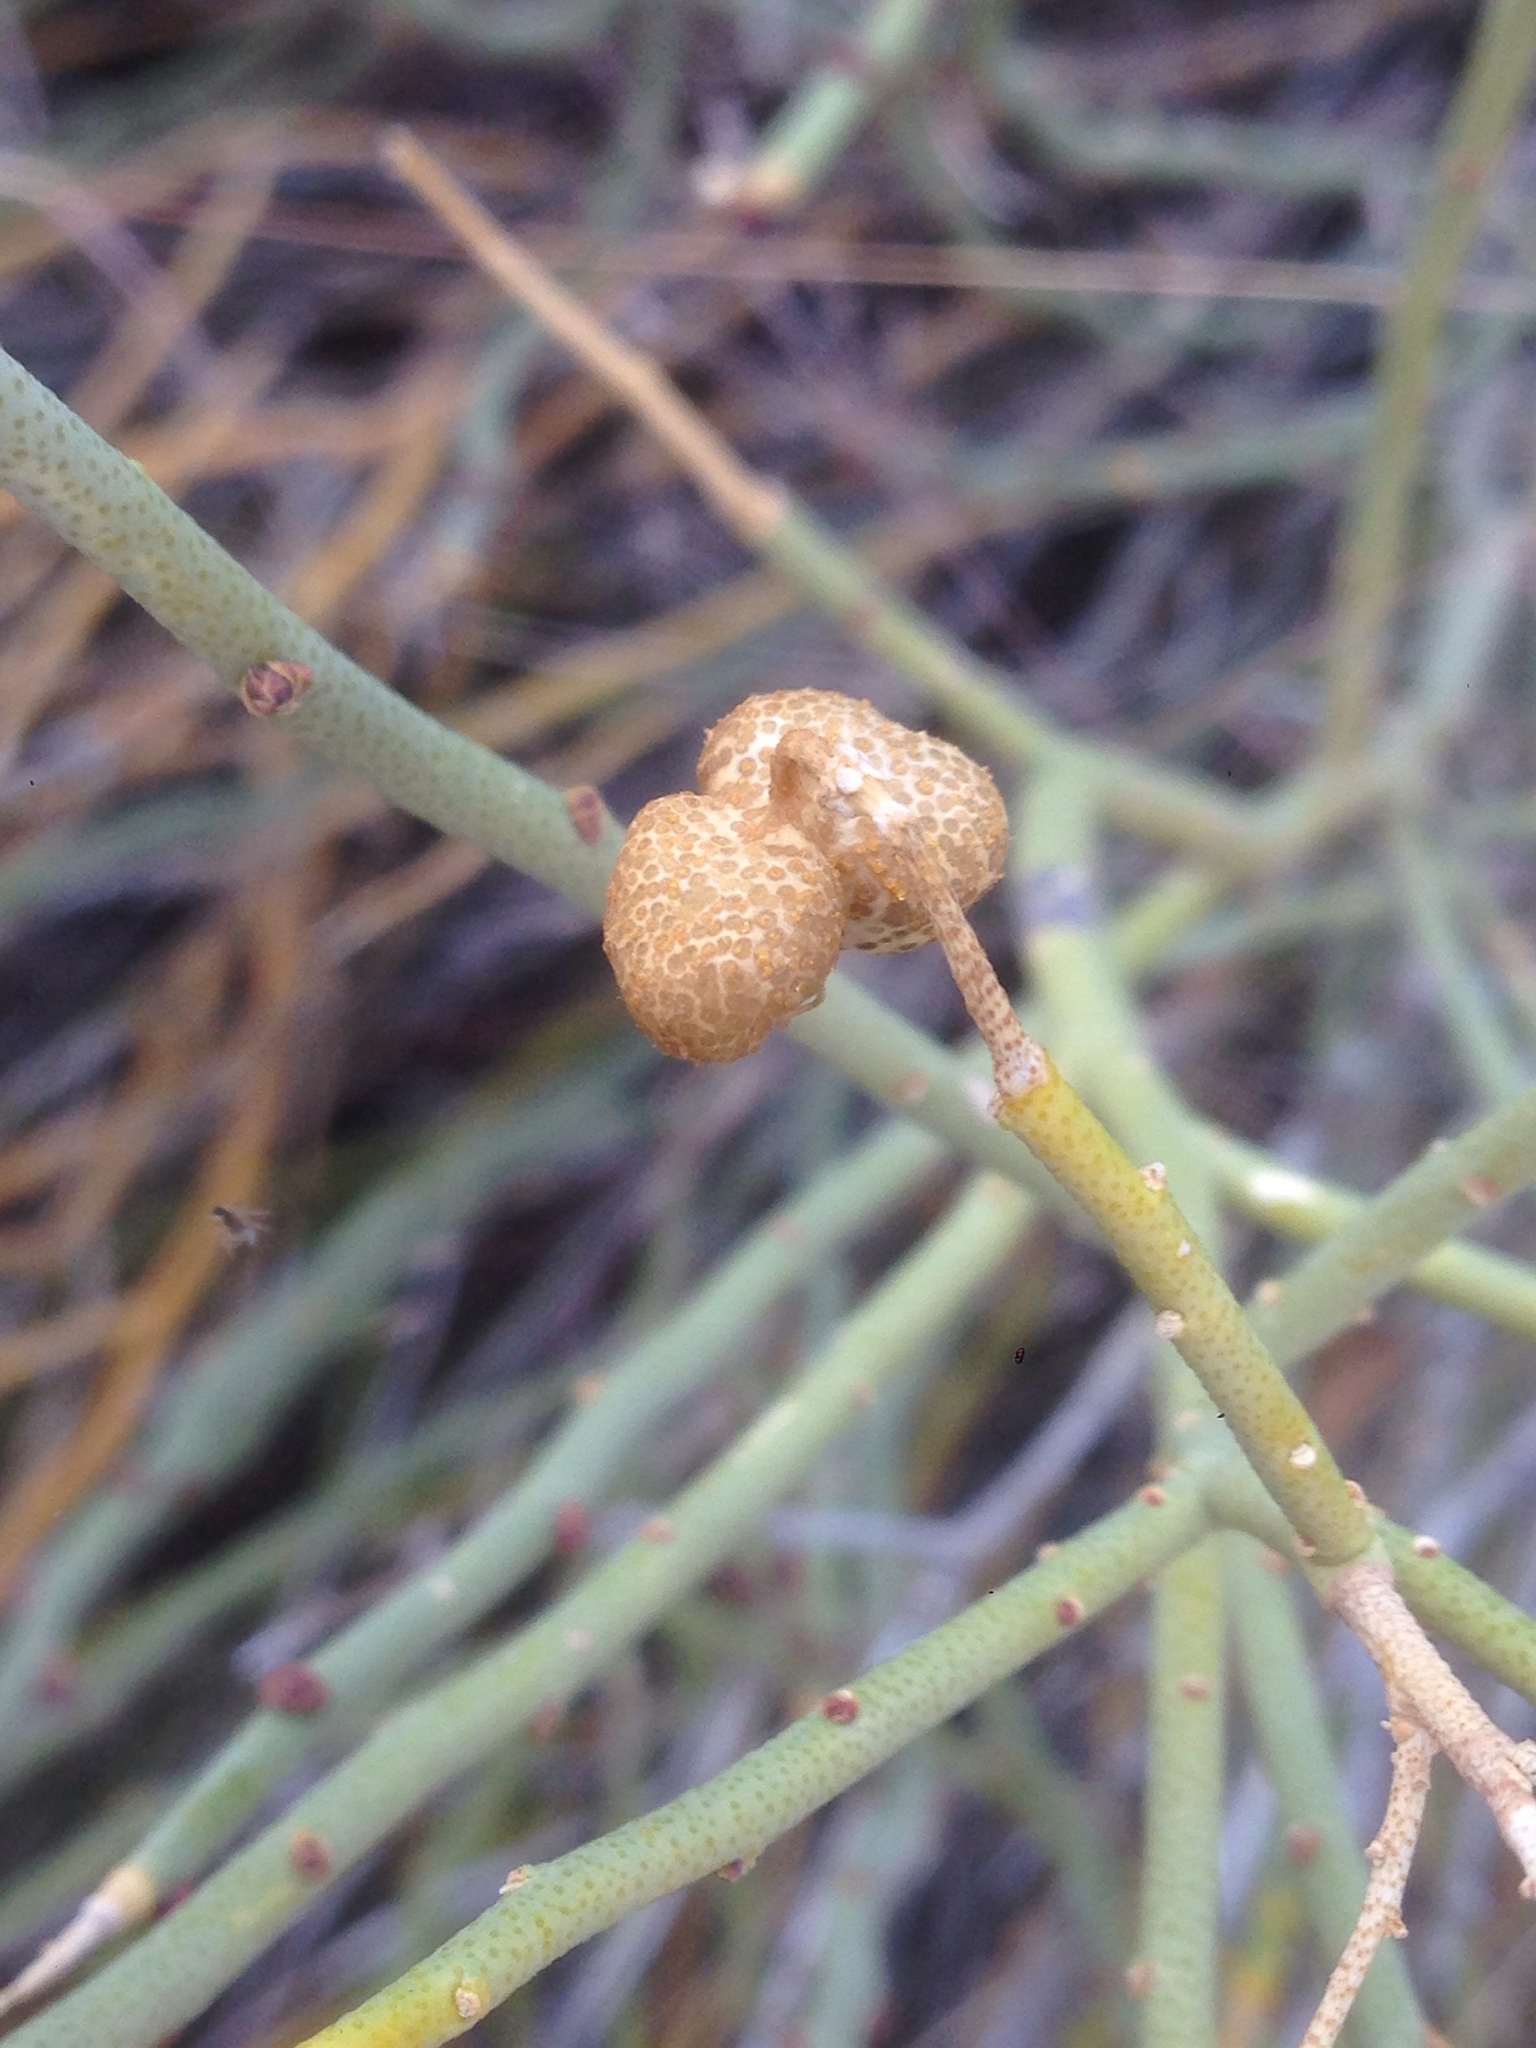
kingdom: Plantae
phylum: Tracheophyta
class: Magnoliopsida
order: Sapindales
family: Rutaceae
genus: Thamnosma
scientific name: Thamnosma montana
